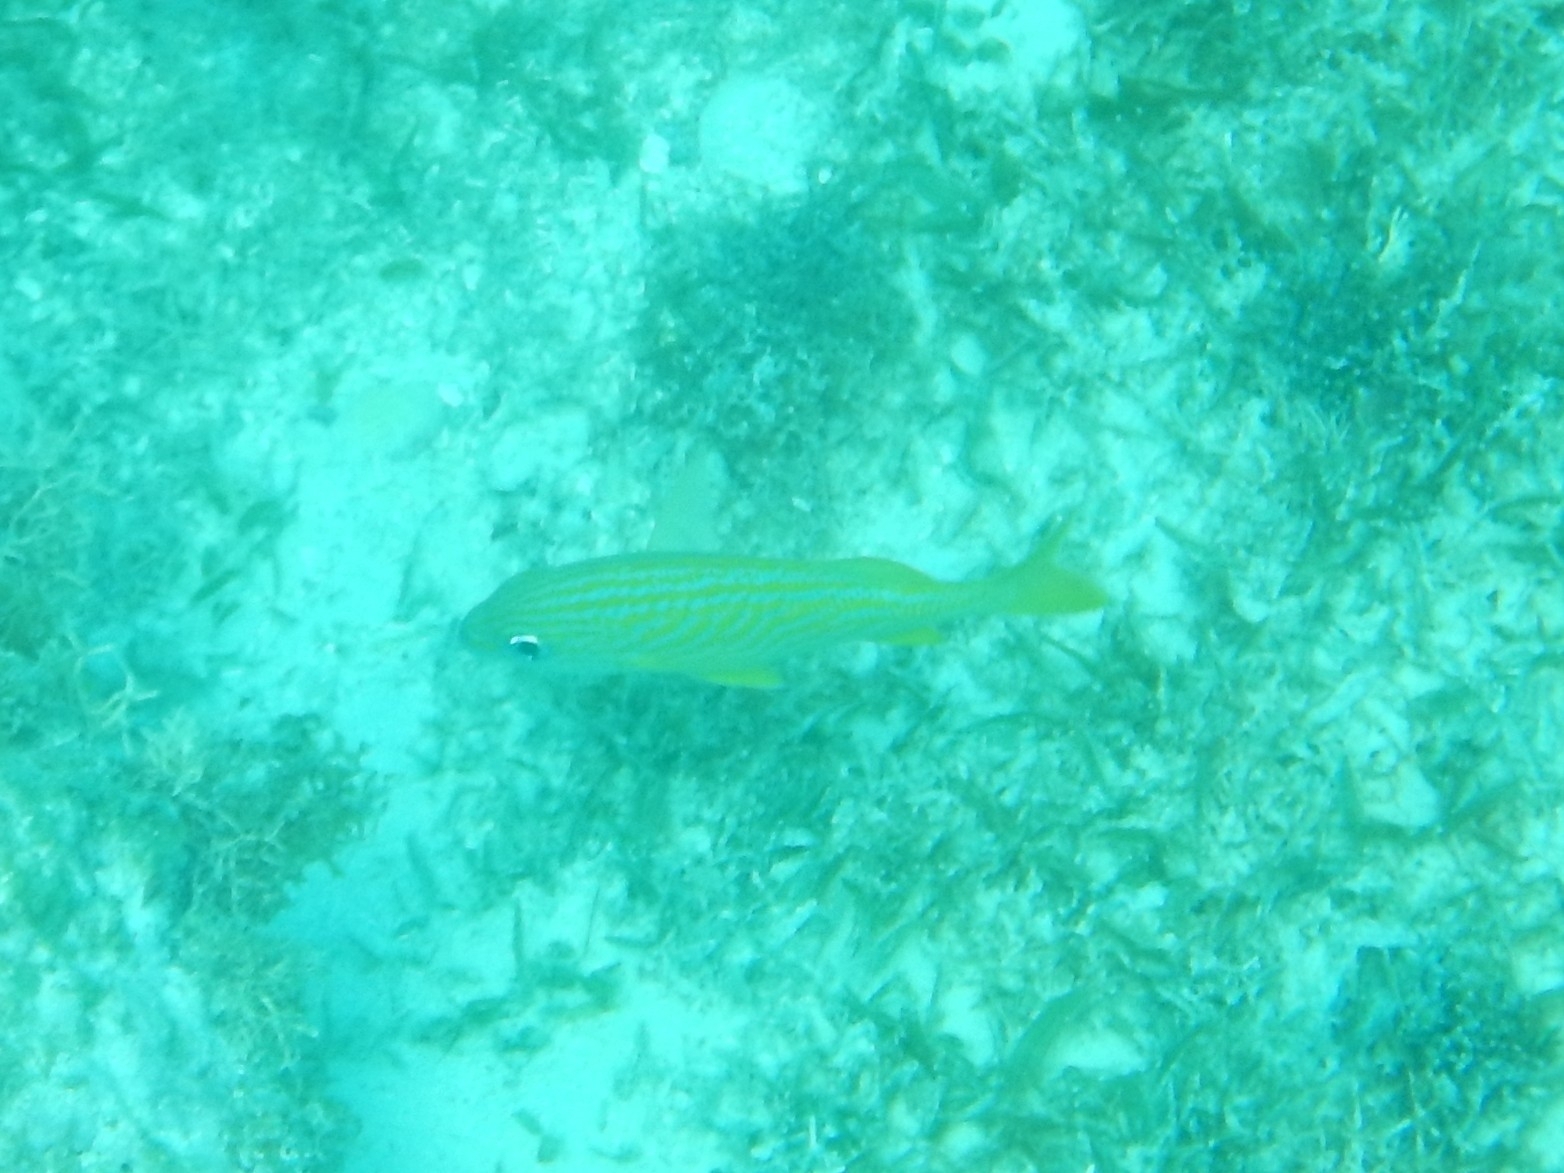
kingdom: Animalia
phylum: Chordata
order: Perciformes
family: Haemulidae
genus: Haemulon
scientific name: Haemulon flavolineatum
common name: French grunt
